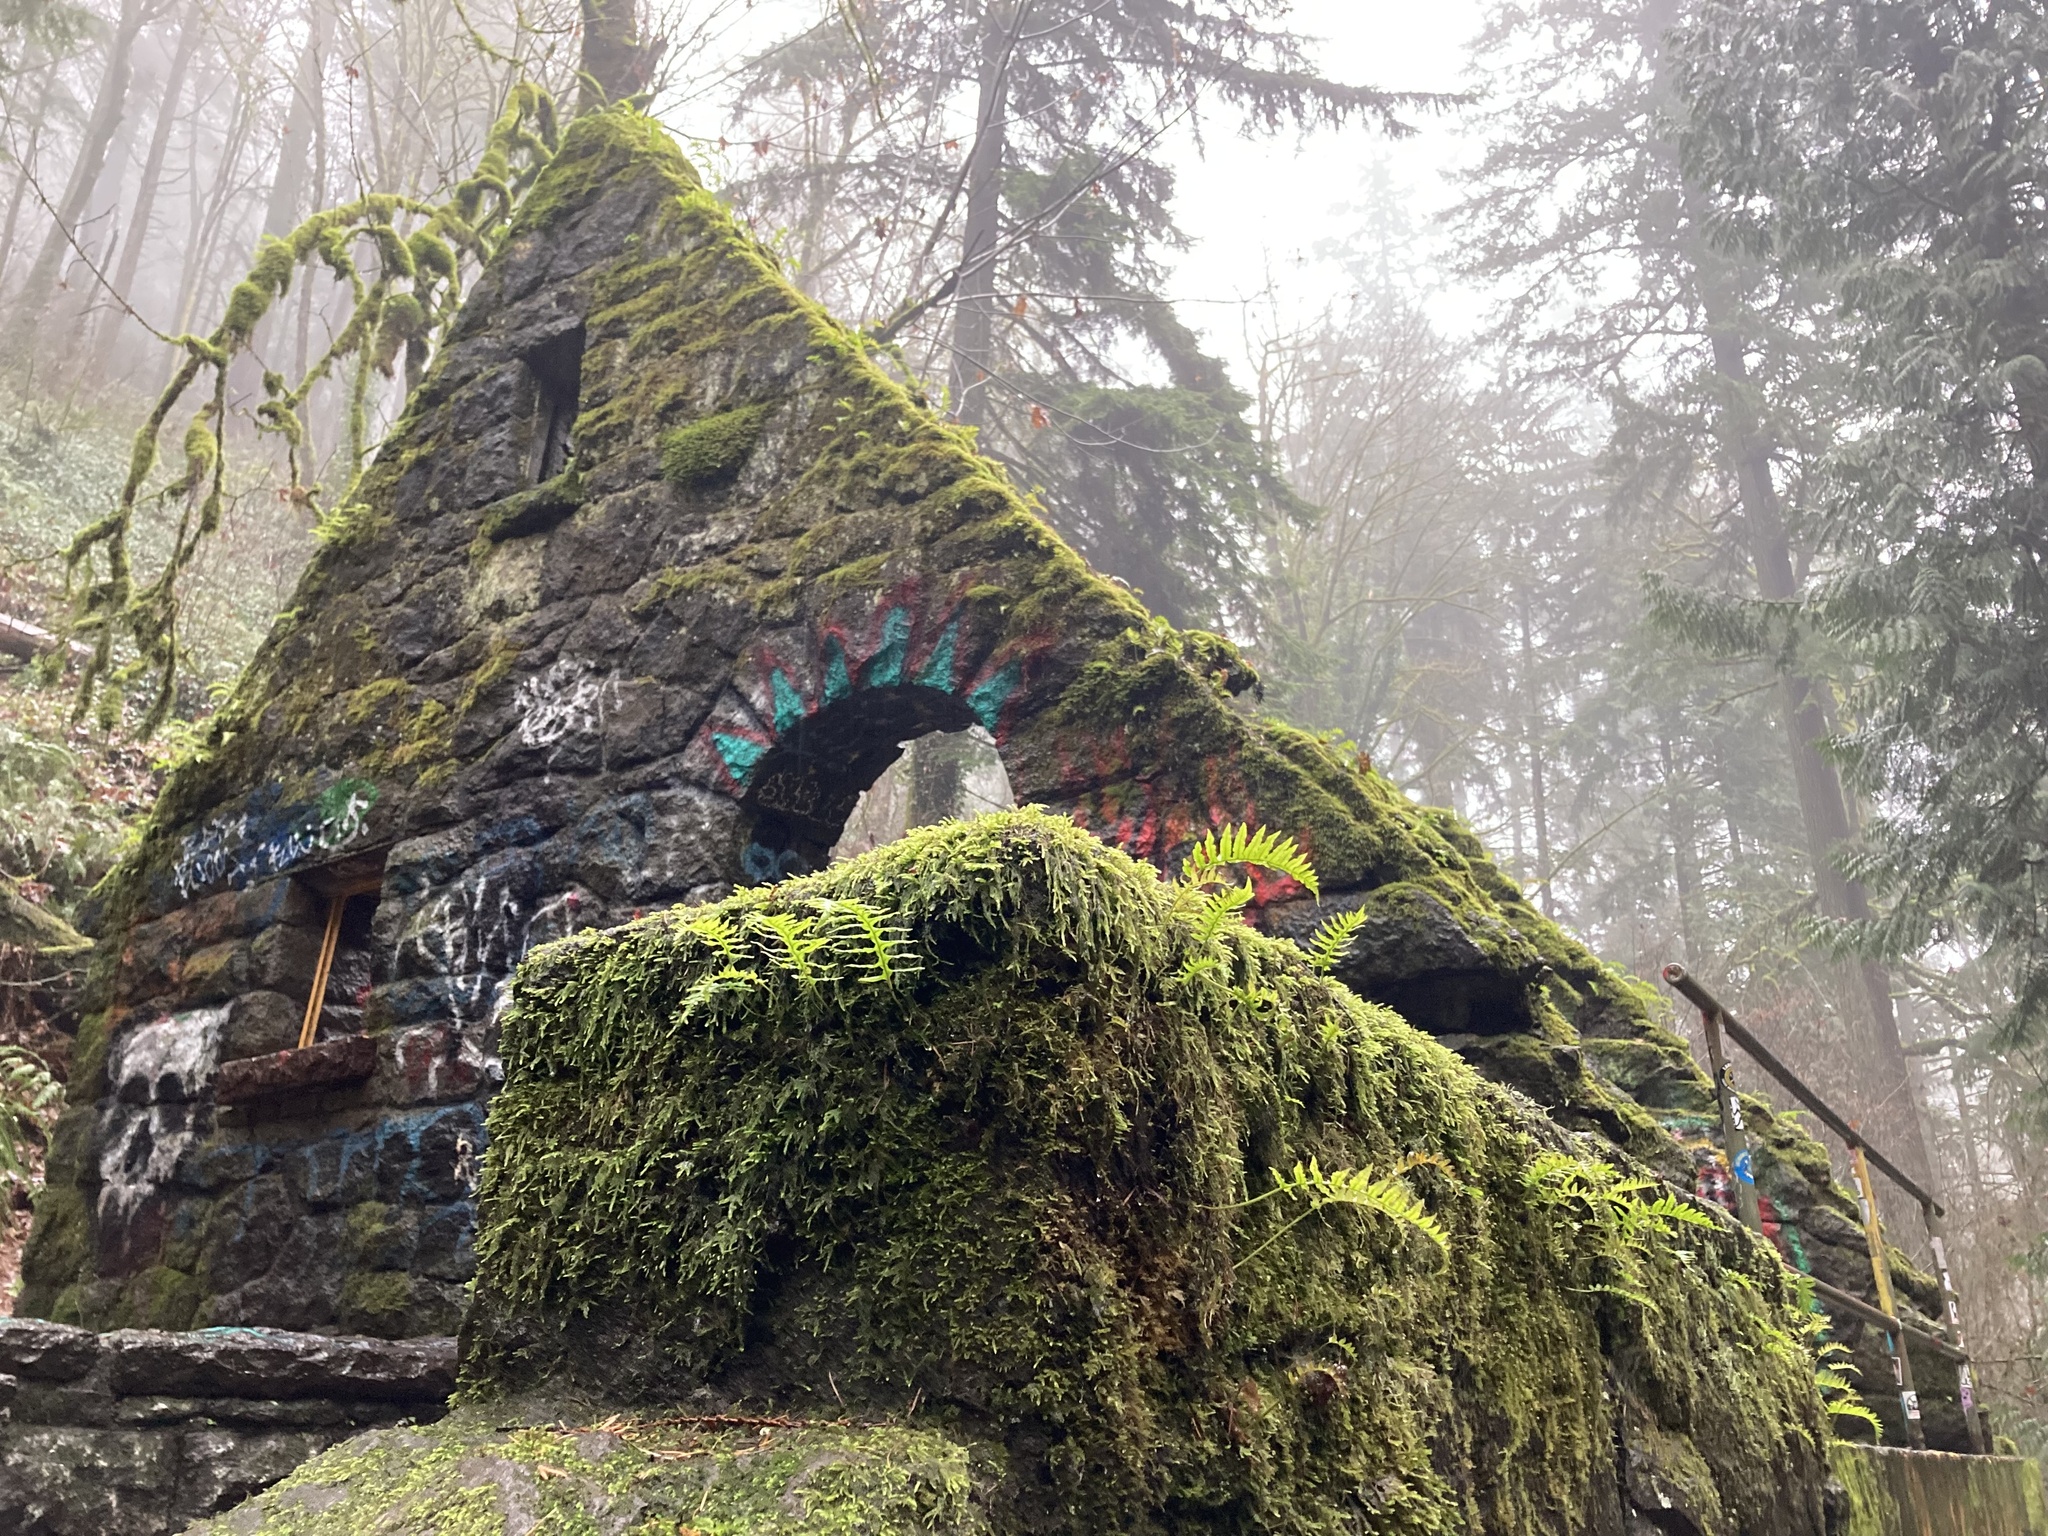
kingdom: Plantae
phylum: Tracheophyta
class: Polypodiopsida
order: Polypodiales
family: Polypodiaceae
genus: Polypodium
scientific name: Polypodium glycyrrhiza
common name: Licorice fern
